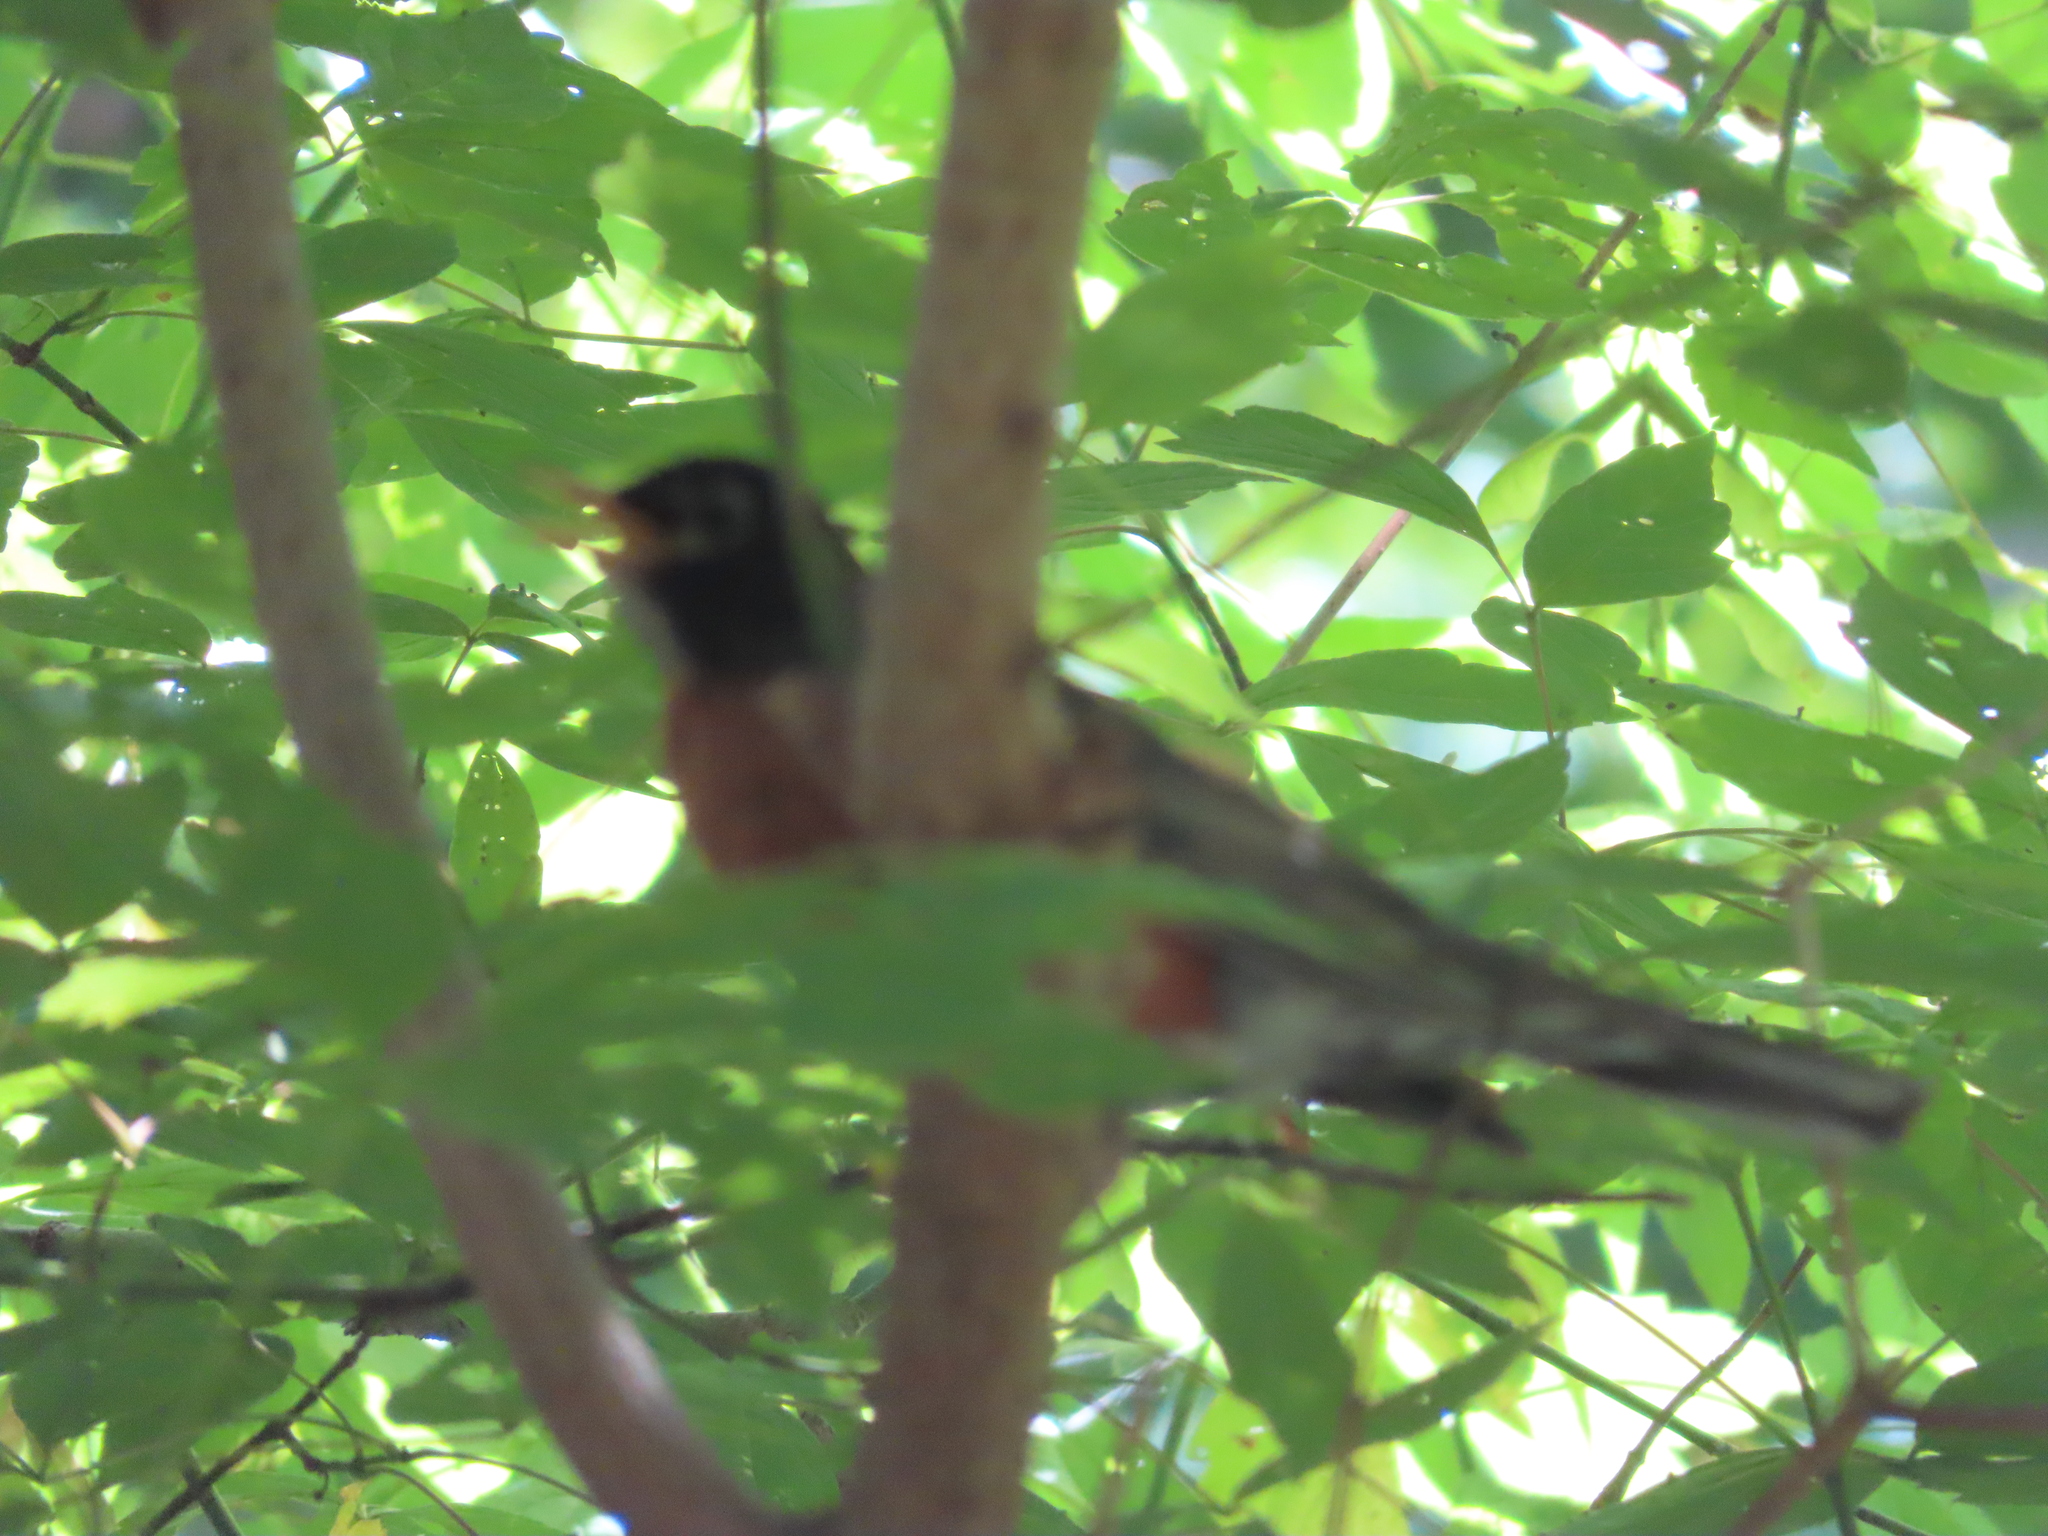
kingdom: Animalia
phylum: Chordata
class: Aves
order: Passeriformes
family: Turdidae
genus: Turdus
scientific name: Turdus migratorius
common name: American robin
